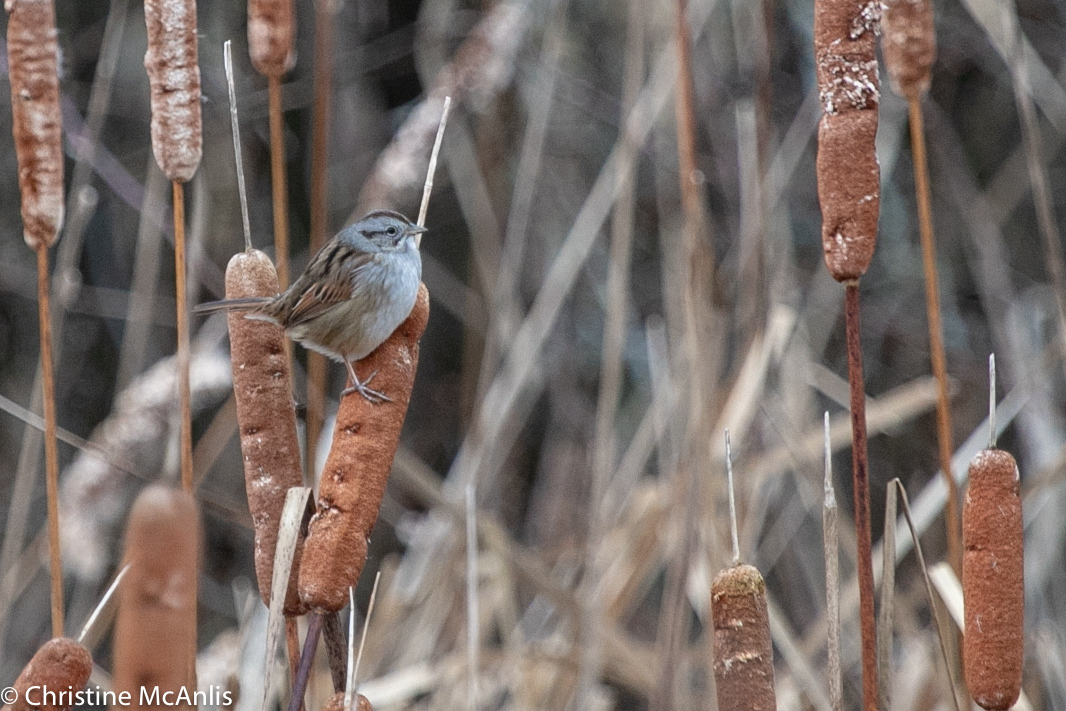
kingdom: Animalia
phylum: Chordata
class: Aves
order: Passeriformes
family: Passerellidae
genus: Melospiza
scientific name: Melospiza georgiana
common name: Swamp sparrow
